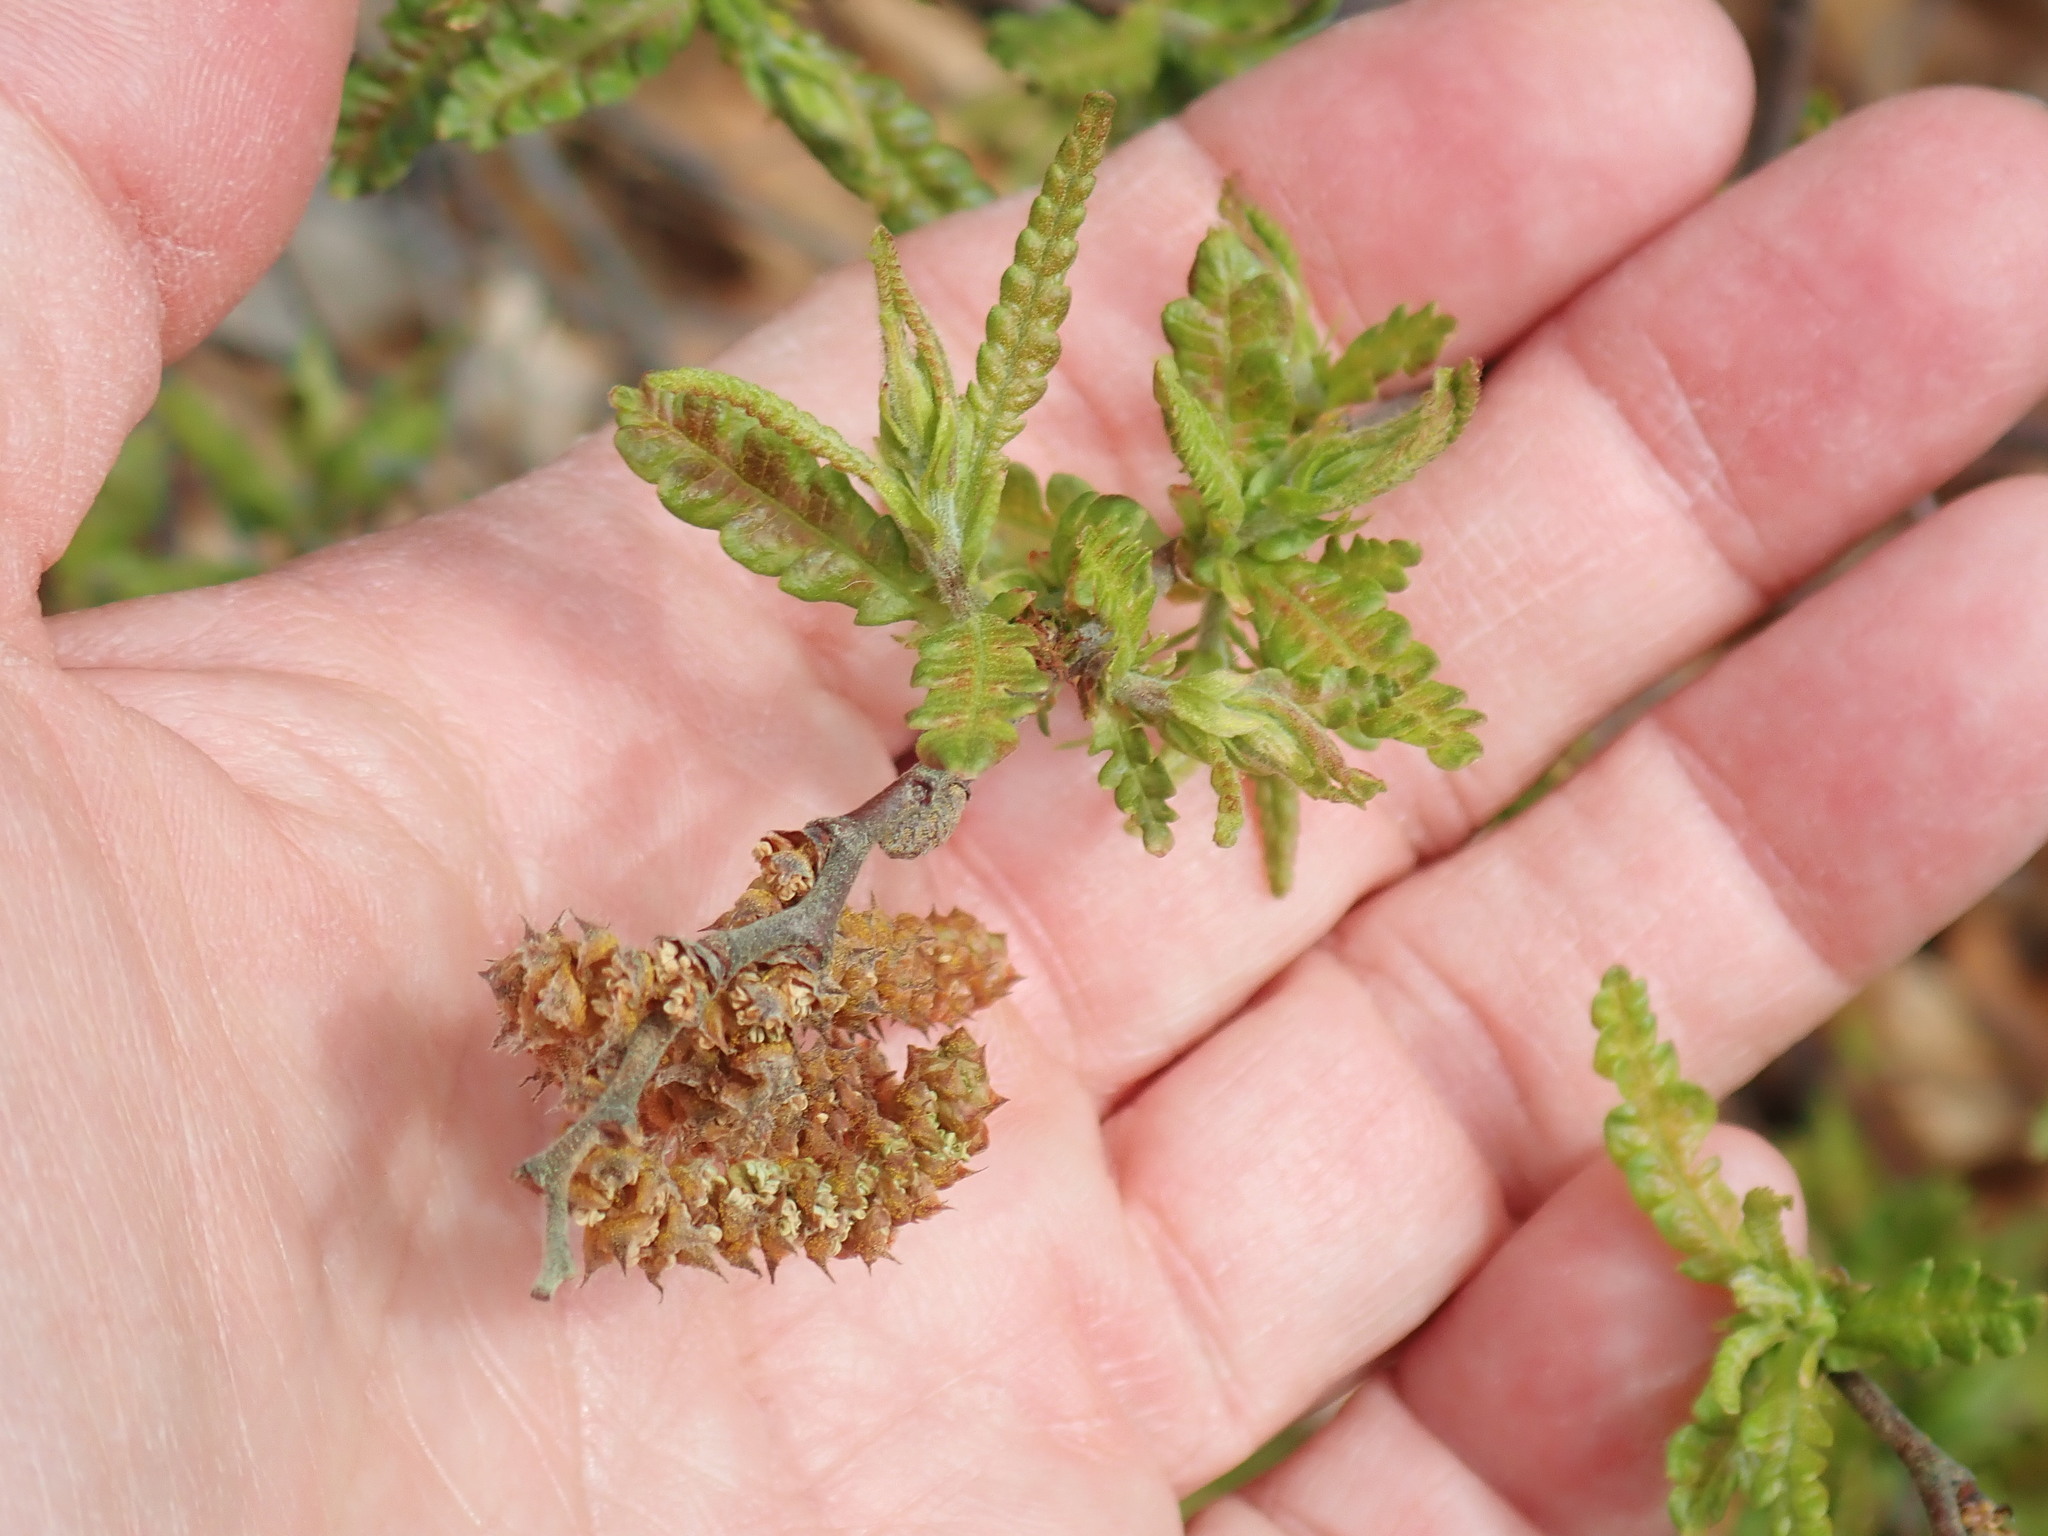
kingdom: Plantae
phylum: Tracheophyta
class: Magnoliopsida
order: Fagales
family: Myricaceae
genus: Comptonia
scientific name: Comptonia peregrina
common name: Sweet-fern
